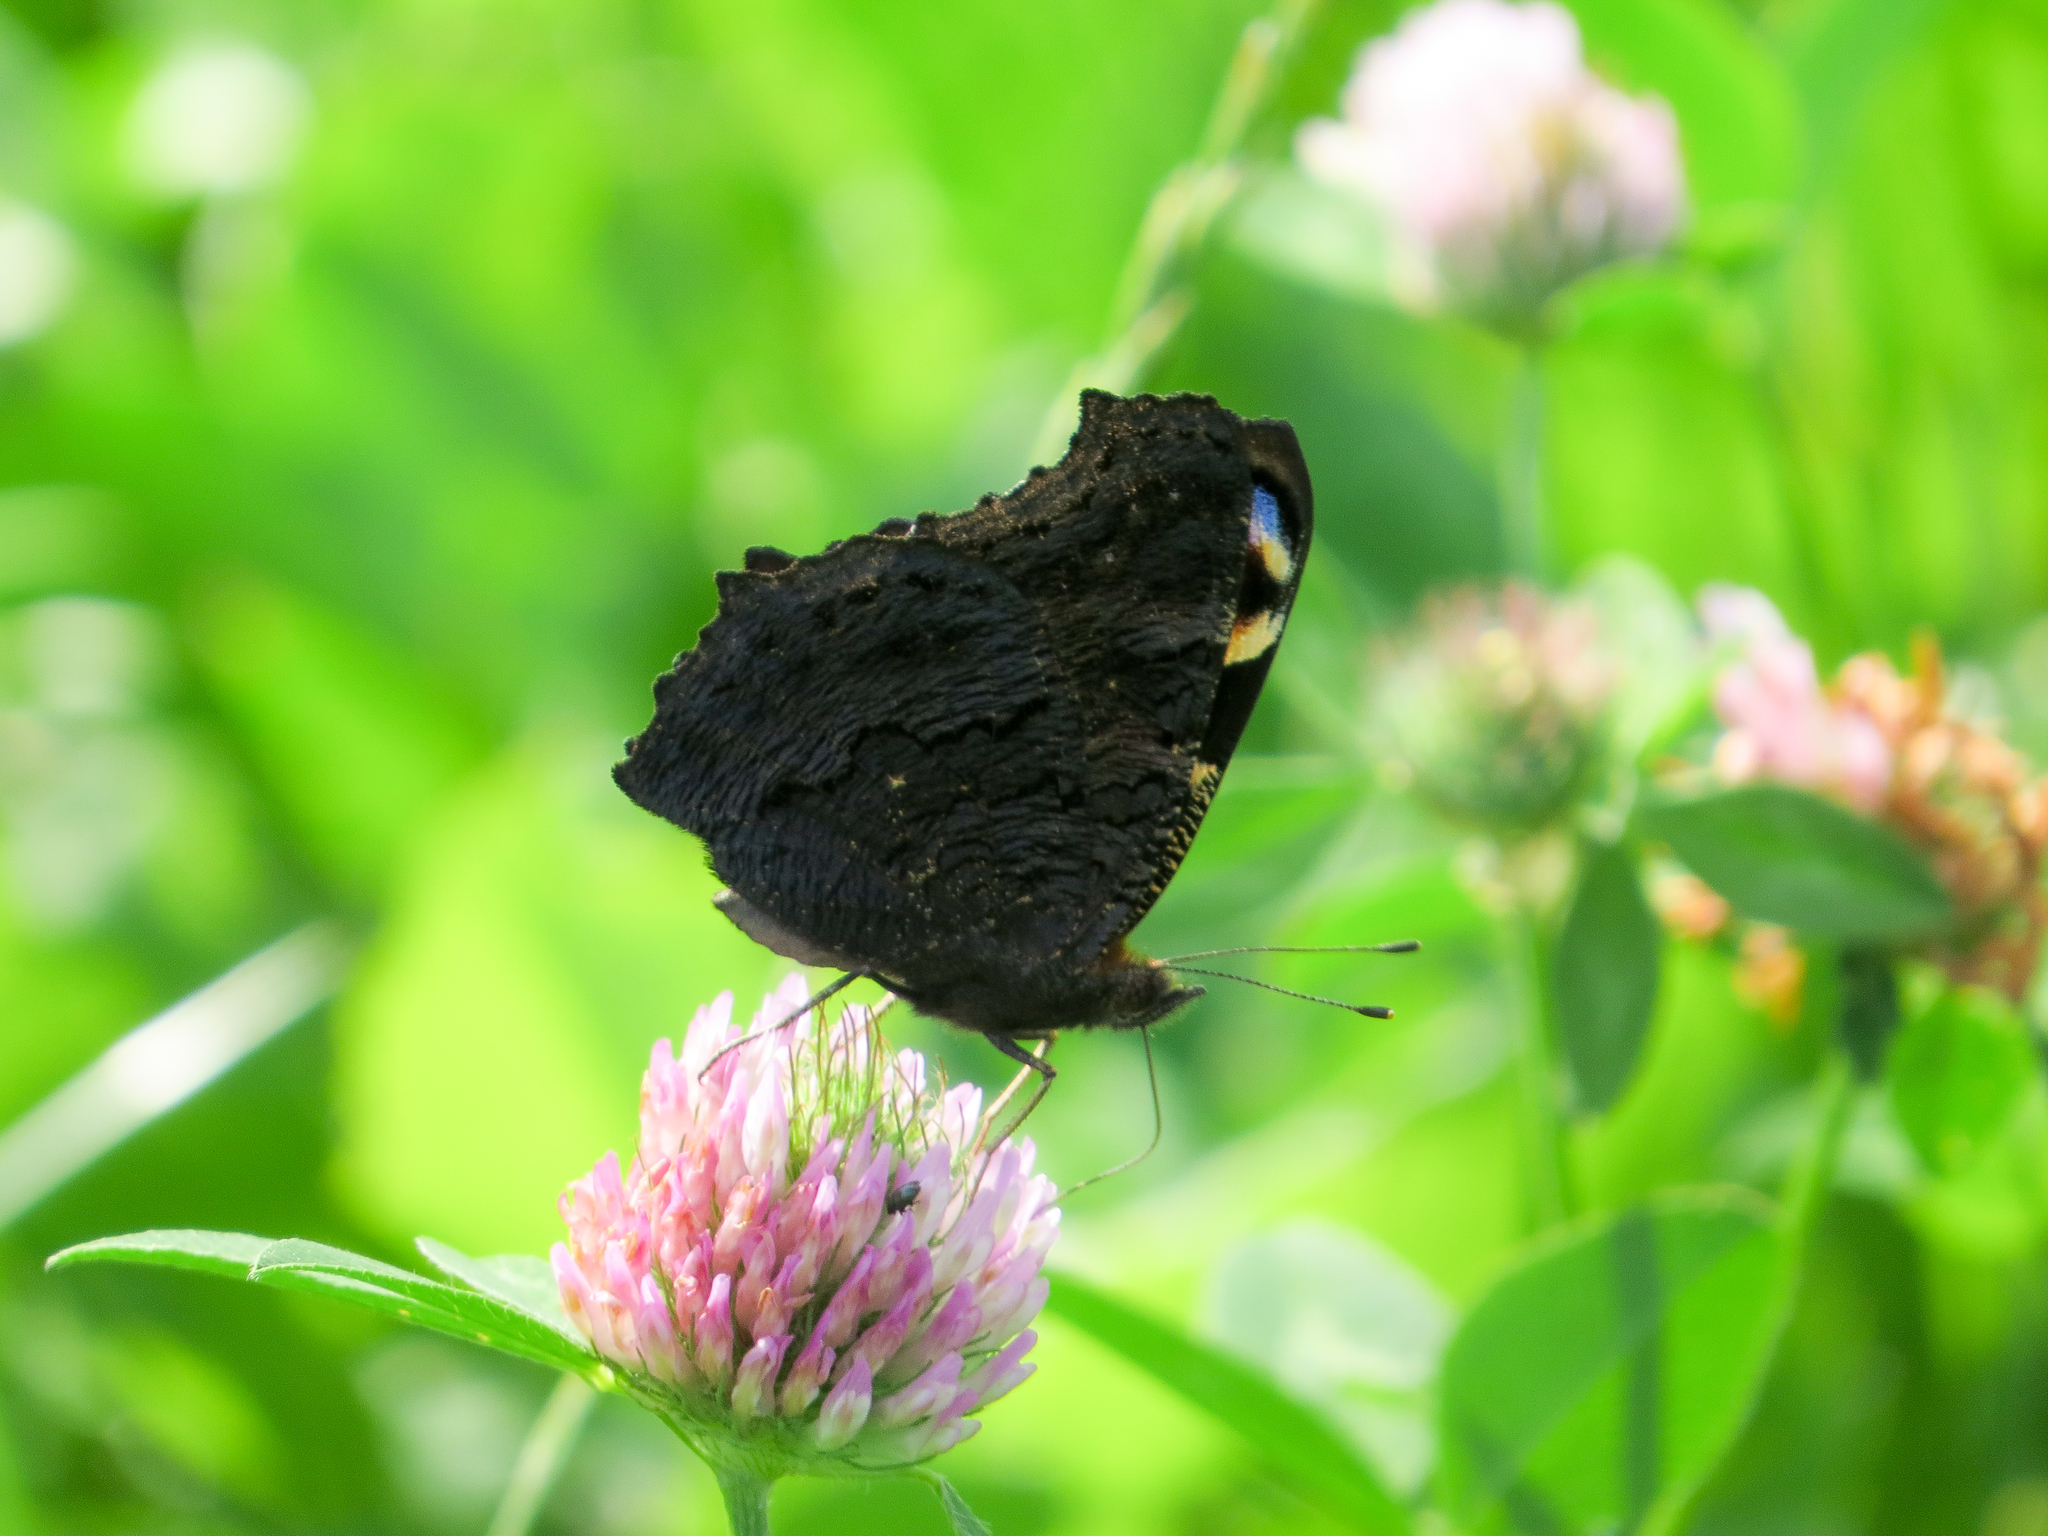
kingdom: Animalia
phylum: Arthropoda
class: Insecta
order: Lepidoptera
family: Nymphalidae
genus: Aglais
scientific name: Aglais io
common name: Peacock
